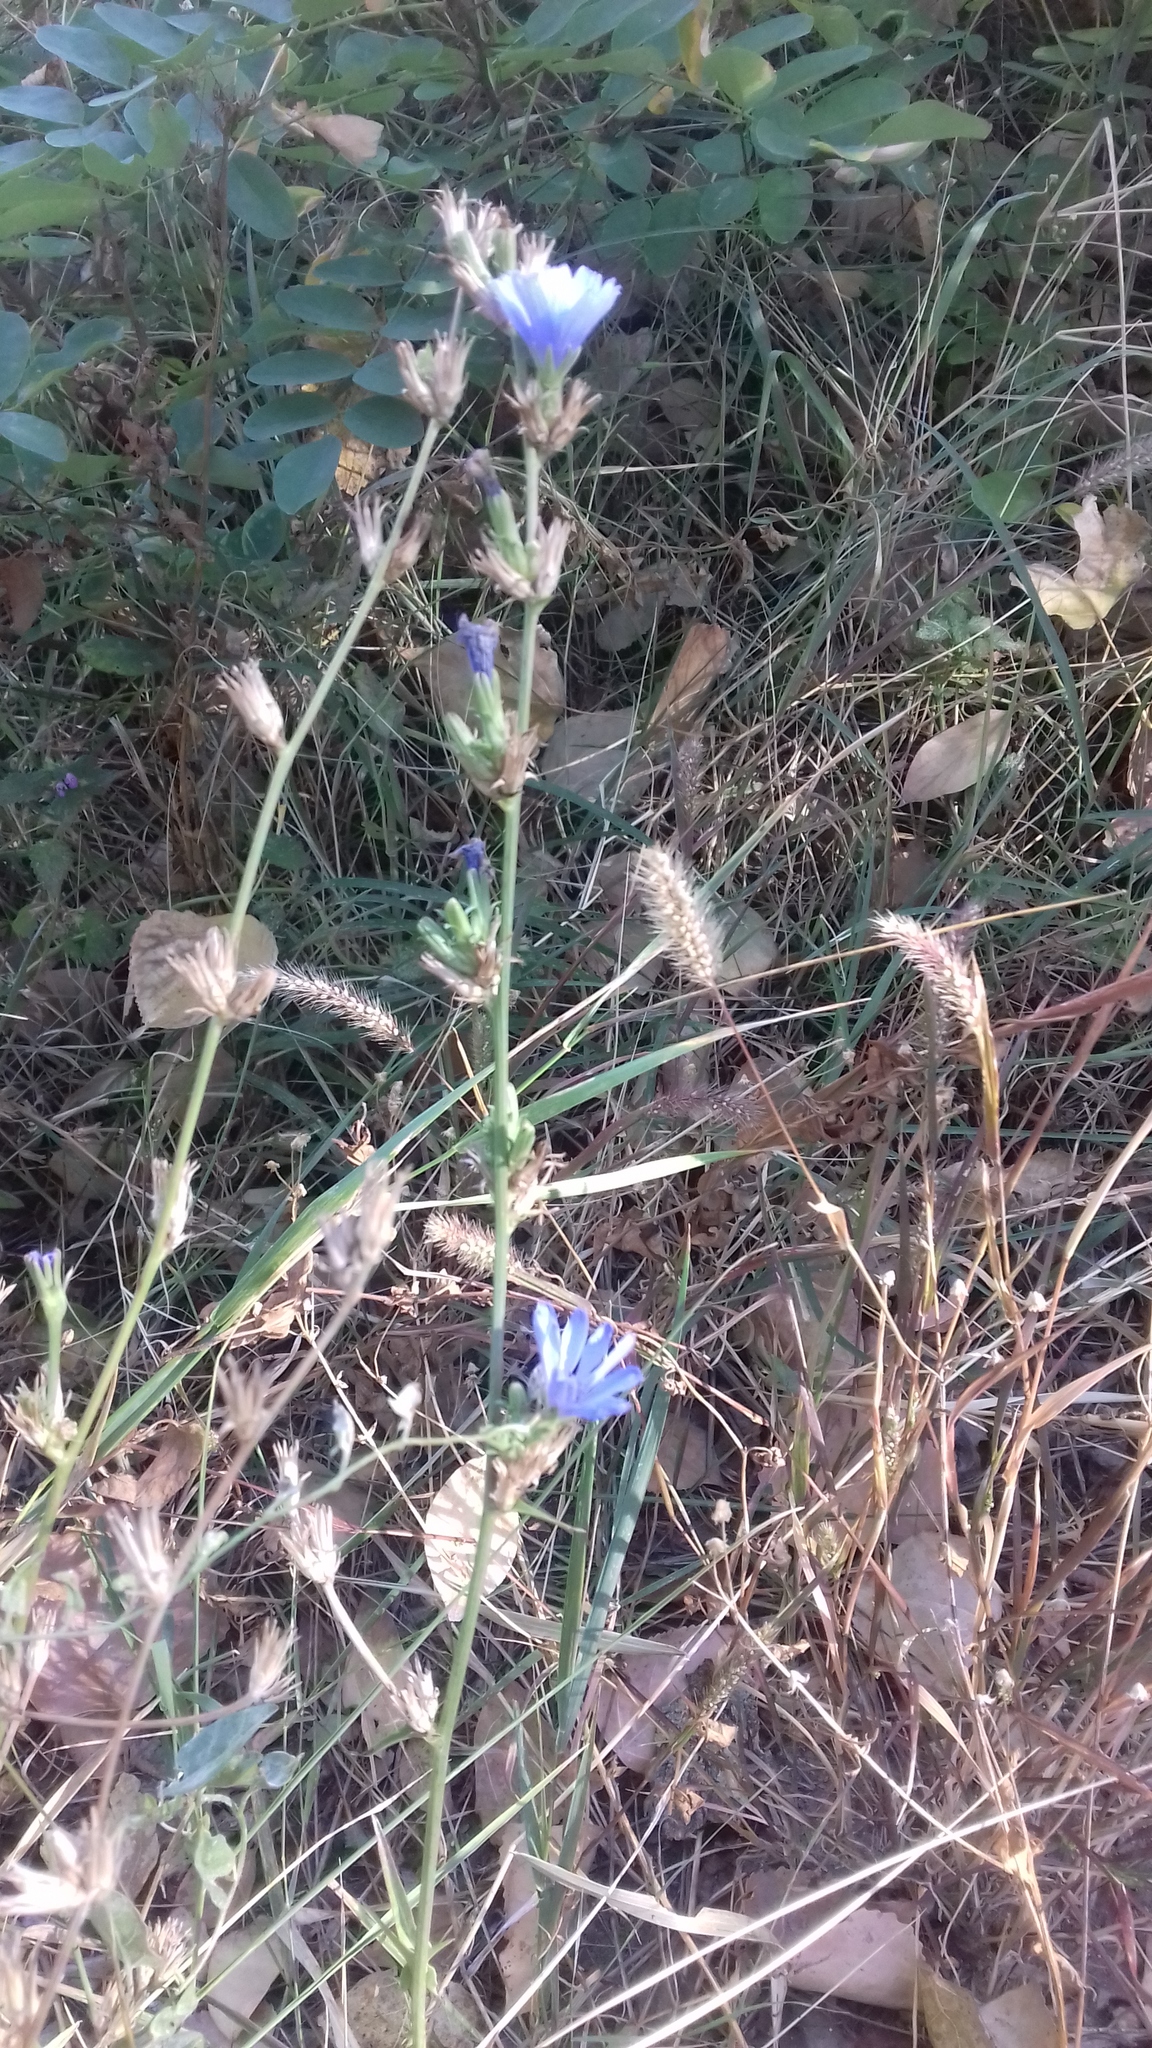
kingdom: Plantae
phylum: Tracheophyta
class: Magnoliopsida
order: Asterales
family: Asteraceae
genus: Cichorium
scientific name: Cichorium intybus
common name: Chicory
